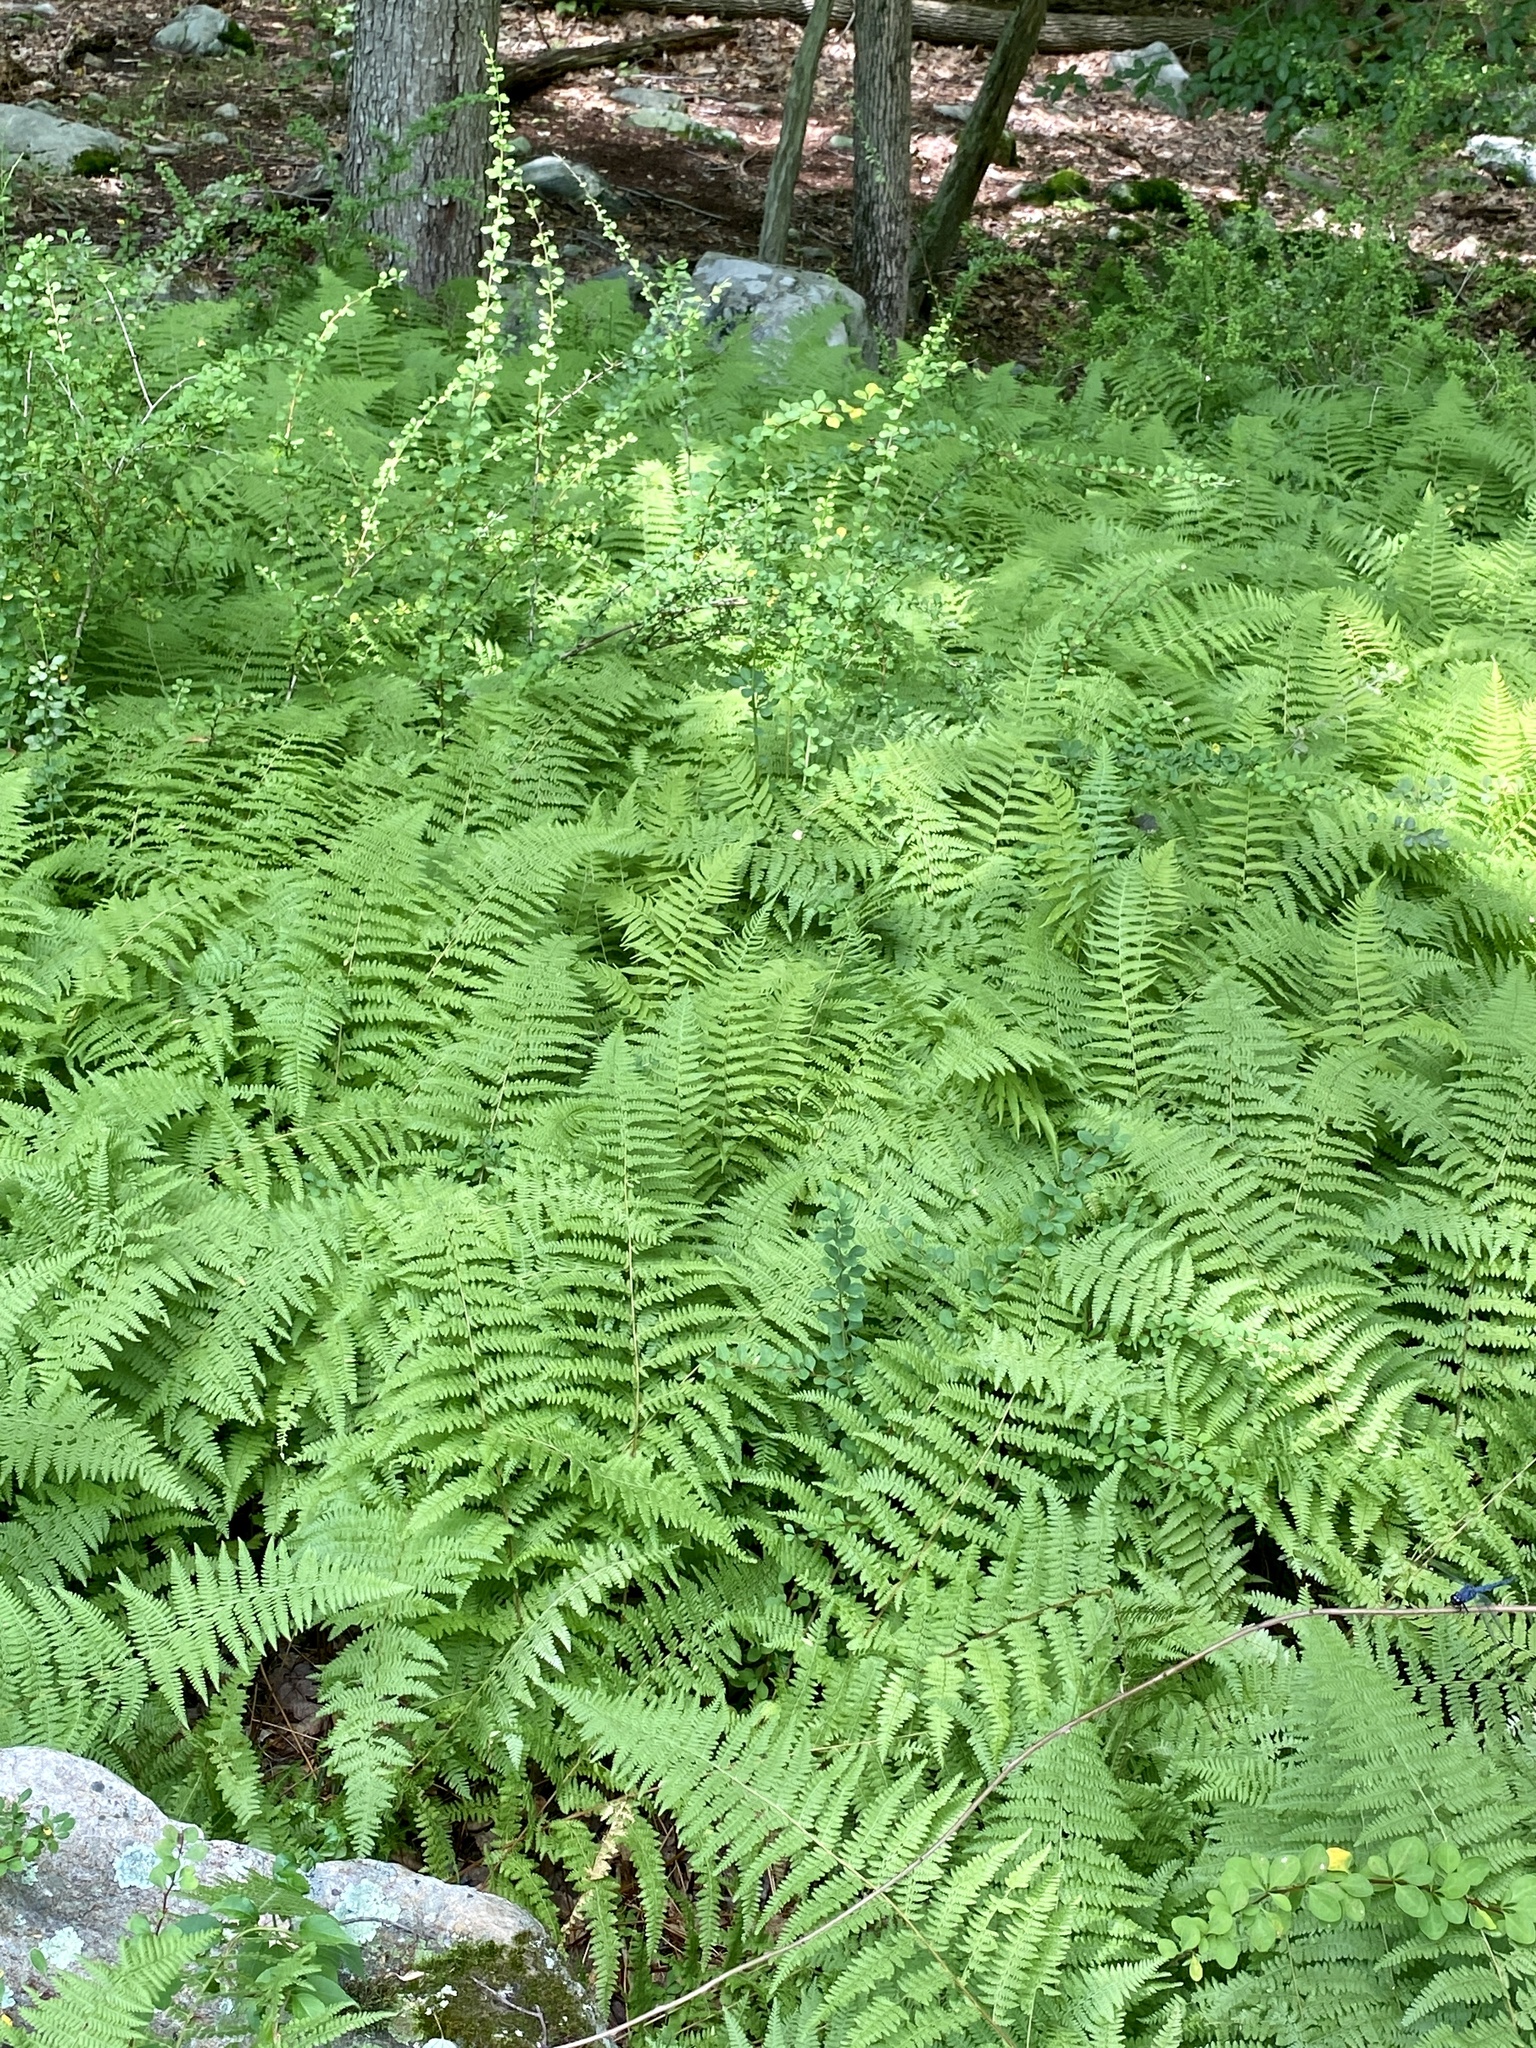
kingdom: Plantae
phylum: Tracheophyta
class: Polypodiopsida
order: Polypodiales
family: Dennstaedtiaceae
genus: Sitobolium
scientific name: Sitobolium punctilobum
